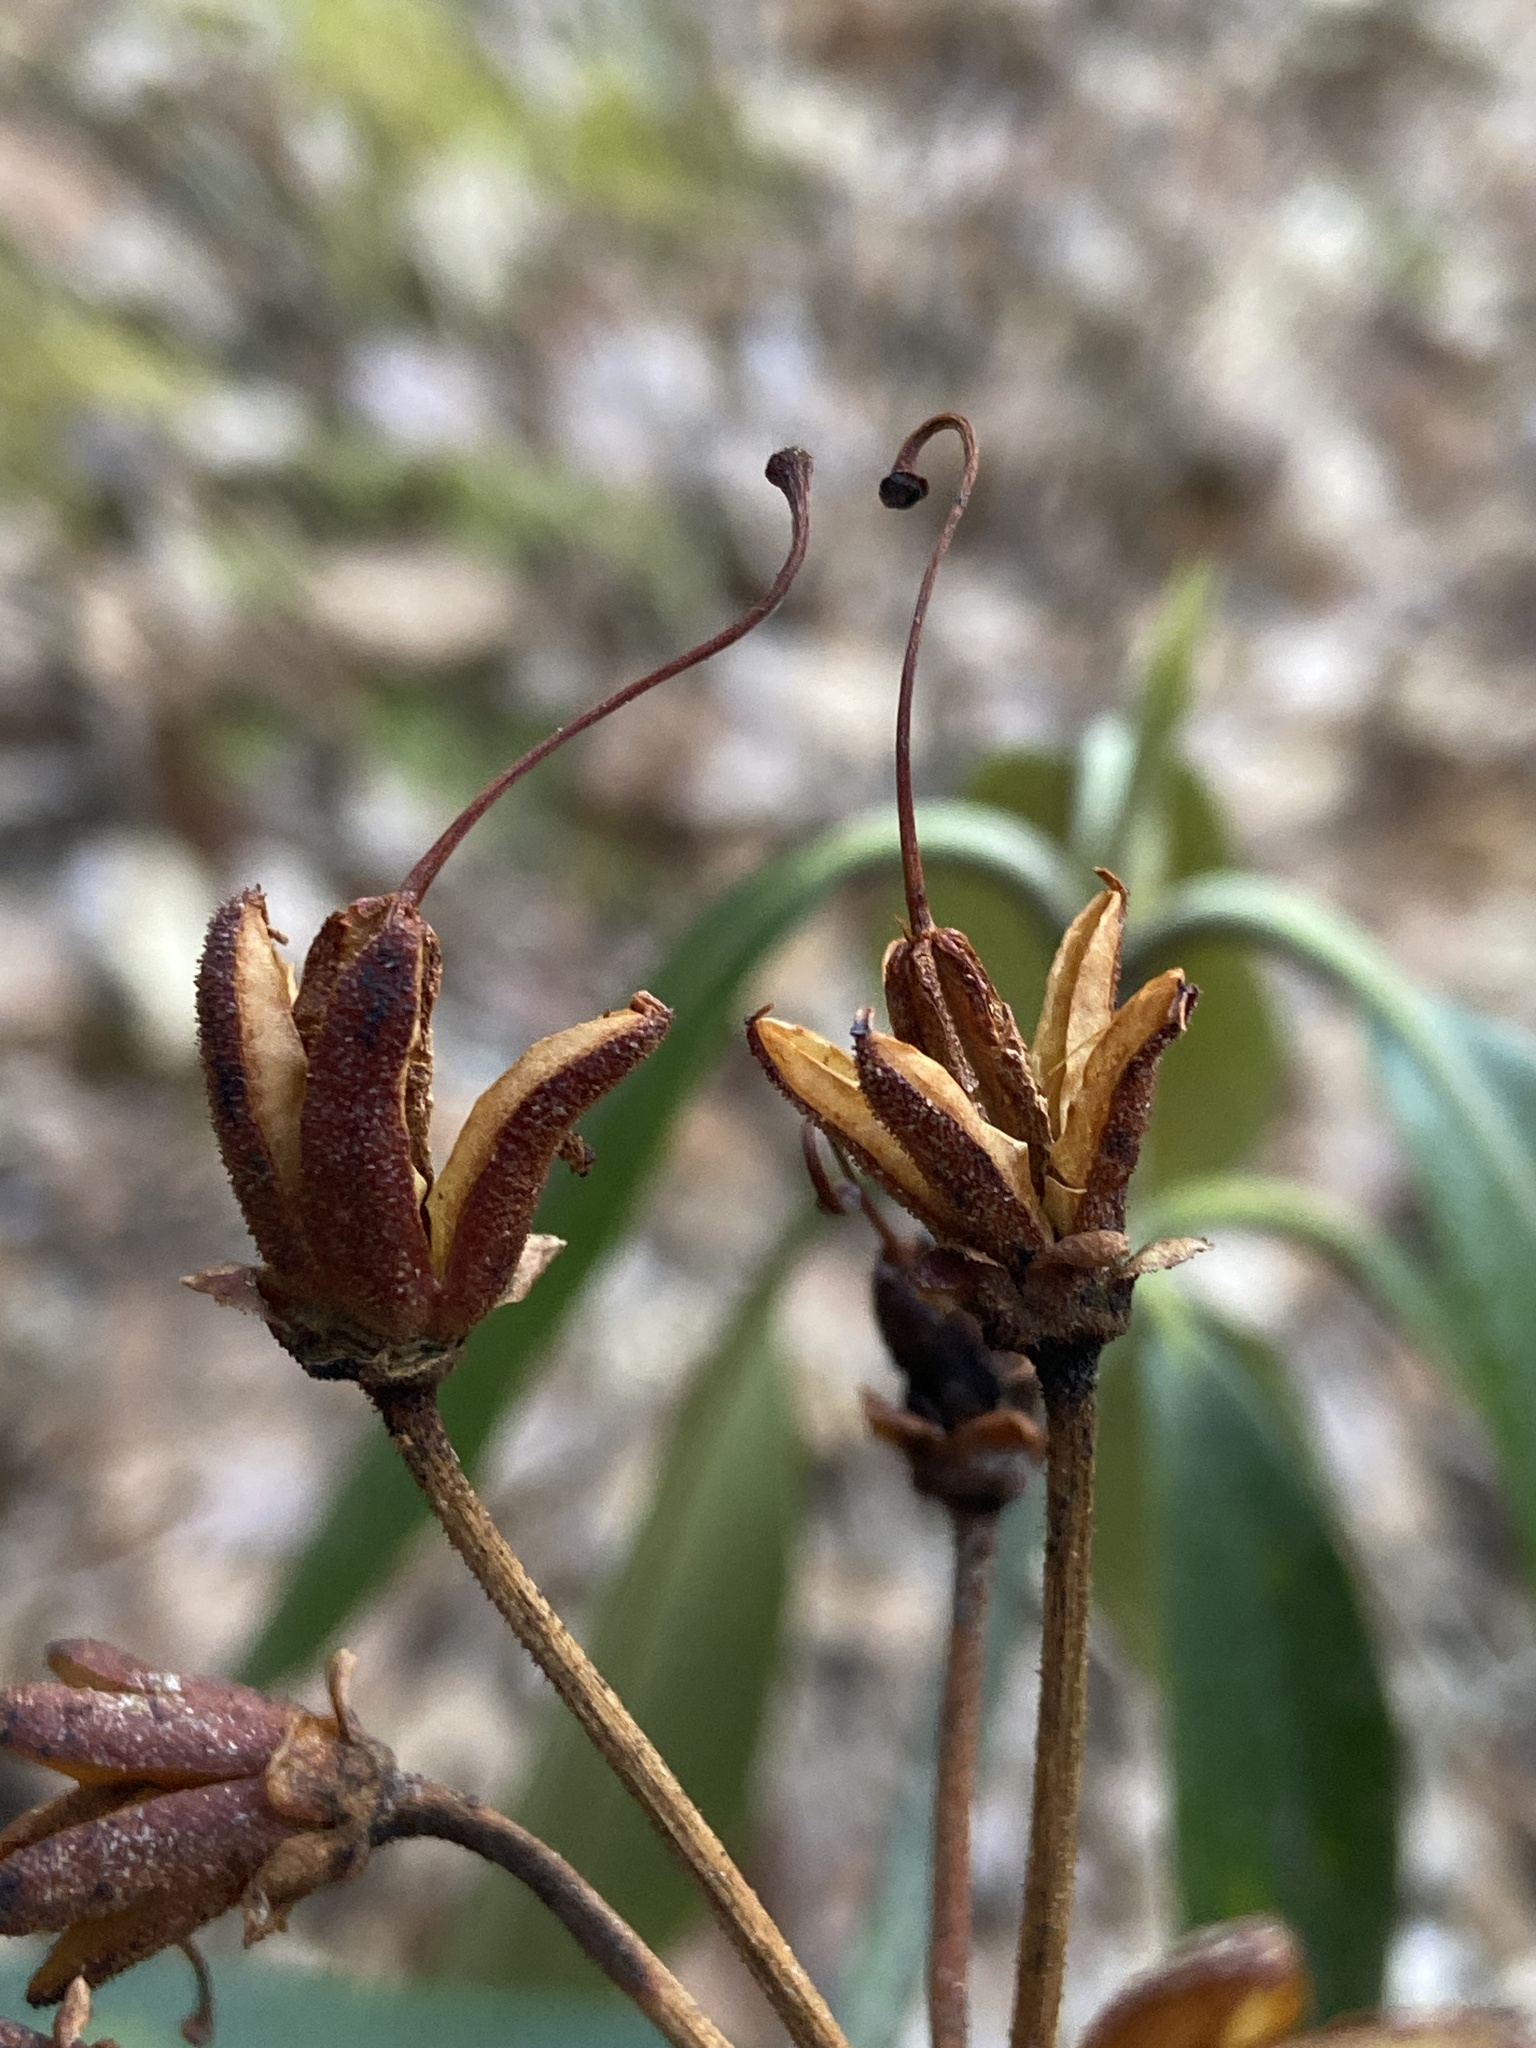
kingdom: Plantae
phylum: Tracheophyta
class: Magnoliopsida
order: Ericales
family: Ericaceae
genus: Rhododendron
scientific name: Rhododendron maximum
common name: Great rhododendron
